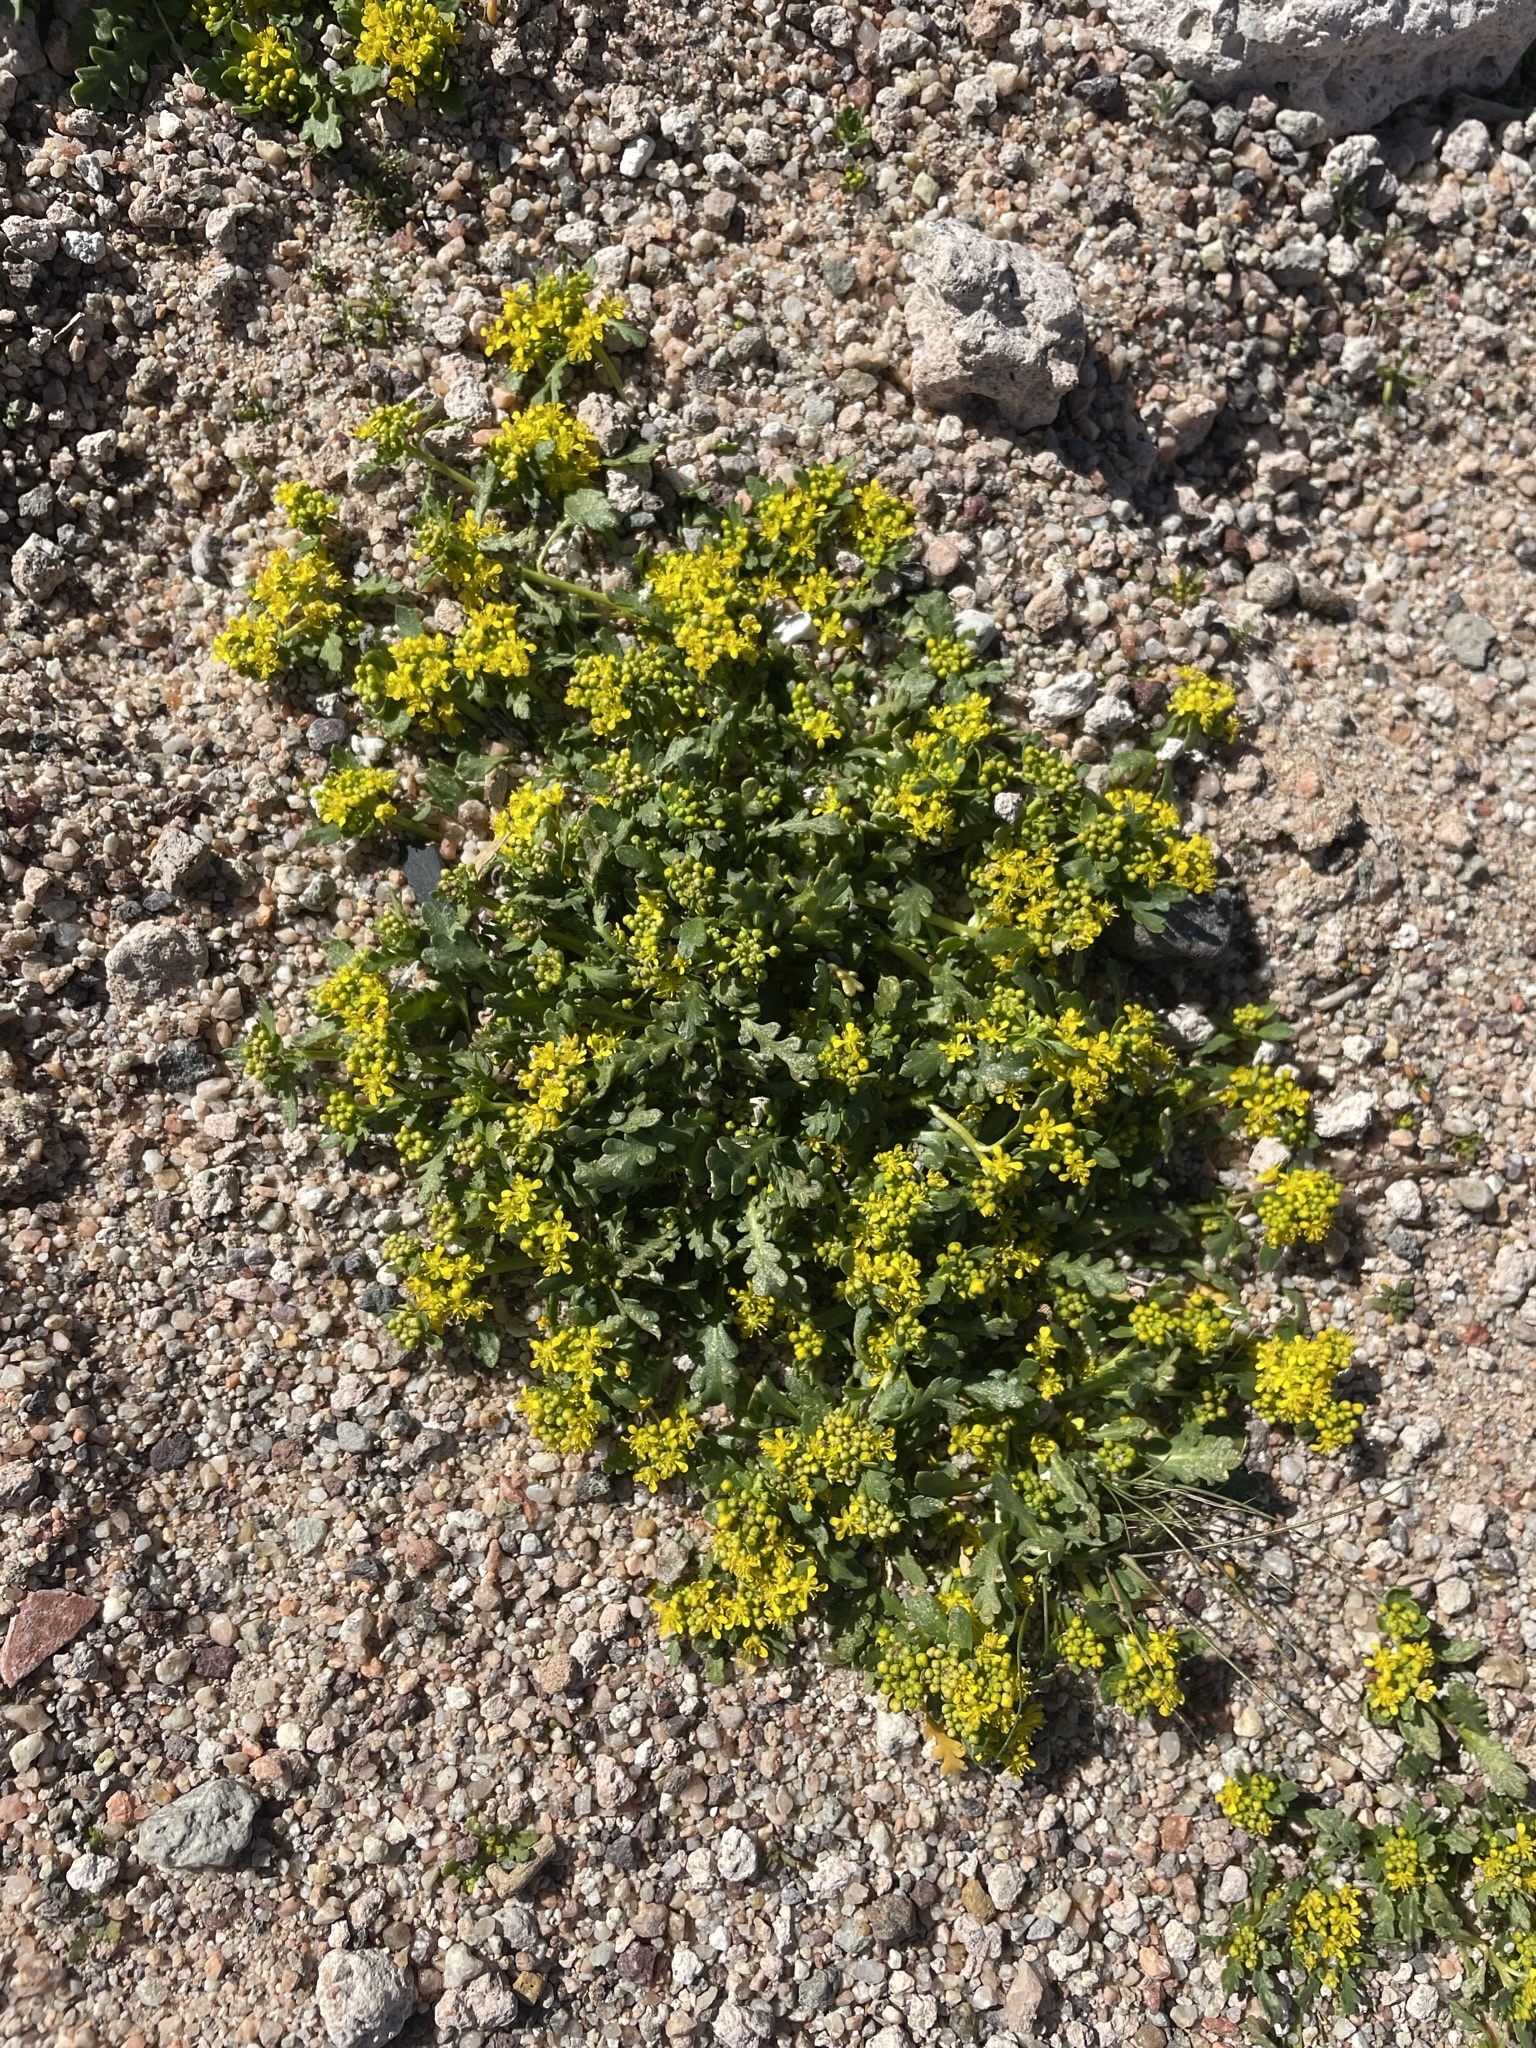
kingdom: Plantae
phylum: Tracheophyta
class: Magnoliopsida
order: Brassicales
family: Brassicaceae
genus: Lepidium
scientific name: Lepidium flavum
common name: Yellow pepperwort
